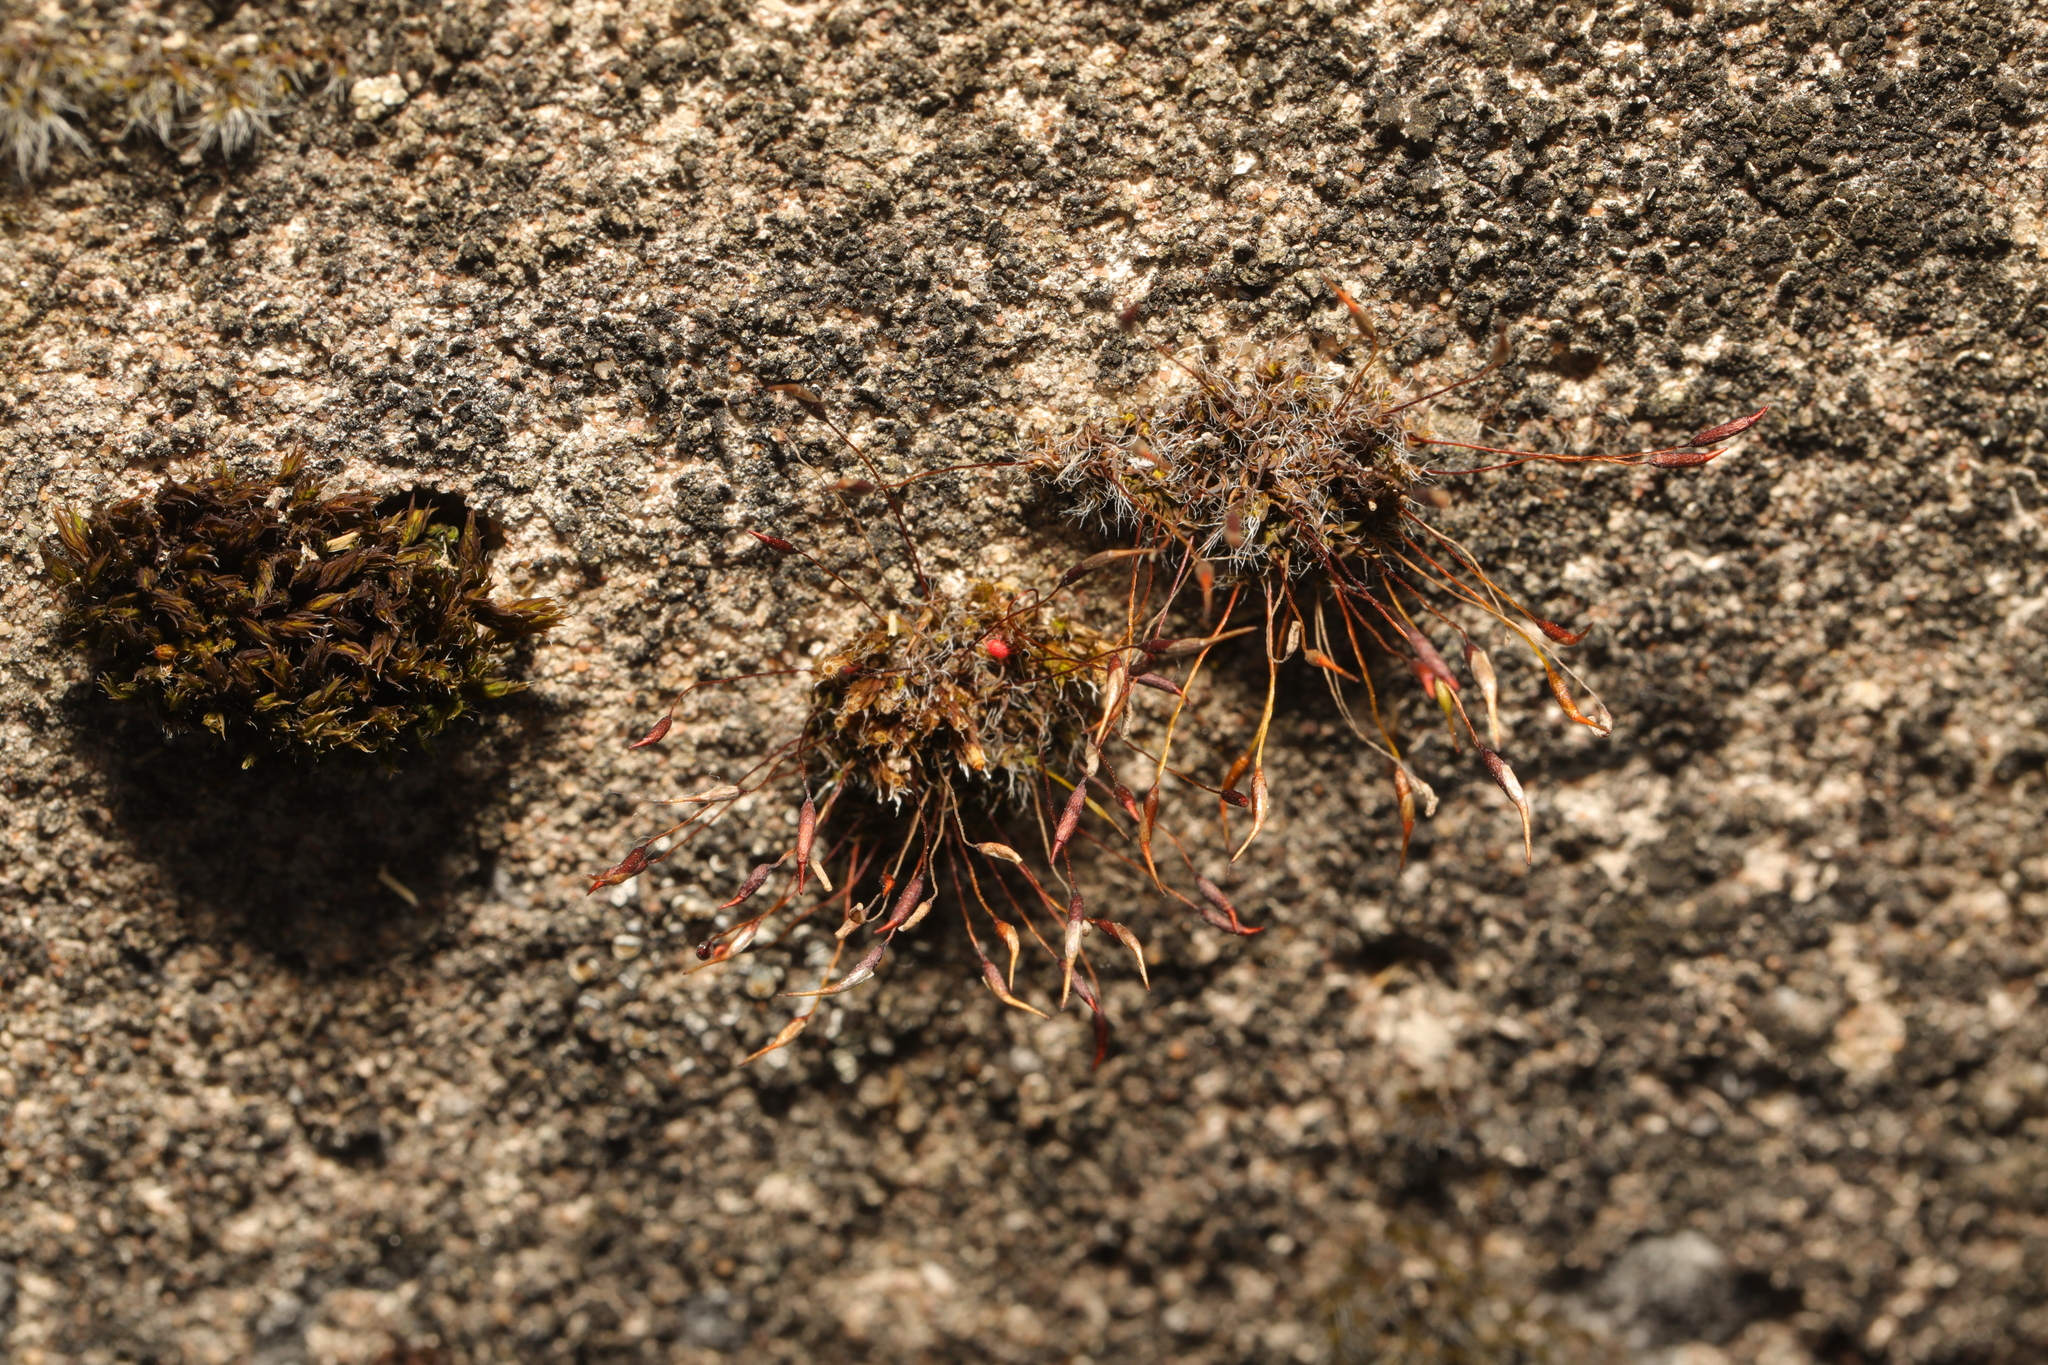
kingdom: Plantae
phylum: Bryophyta
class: Bryopsida
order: Pottiales
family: Pottiaceae
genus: Tortula
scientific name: Tortula muralis
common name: Wall screw-moss
